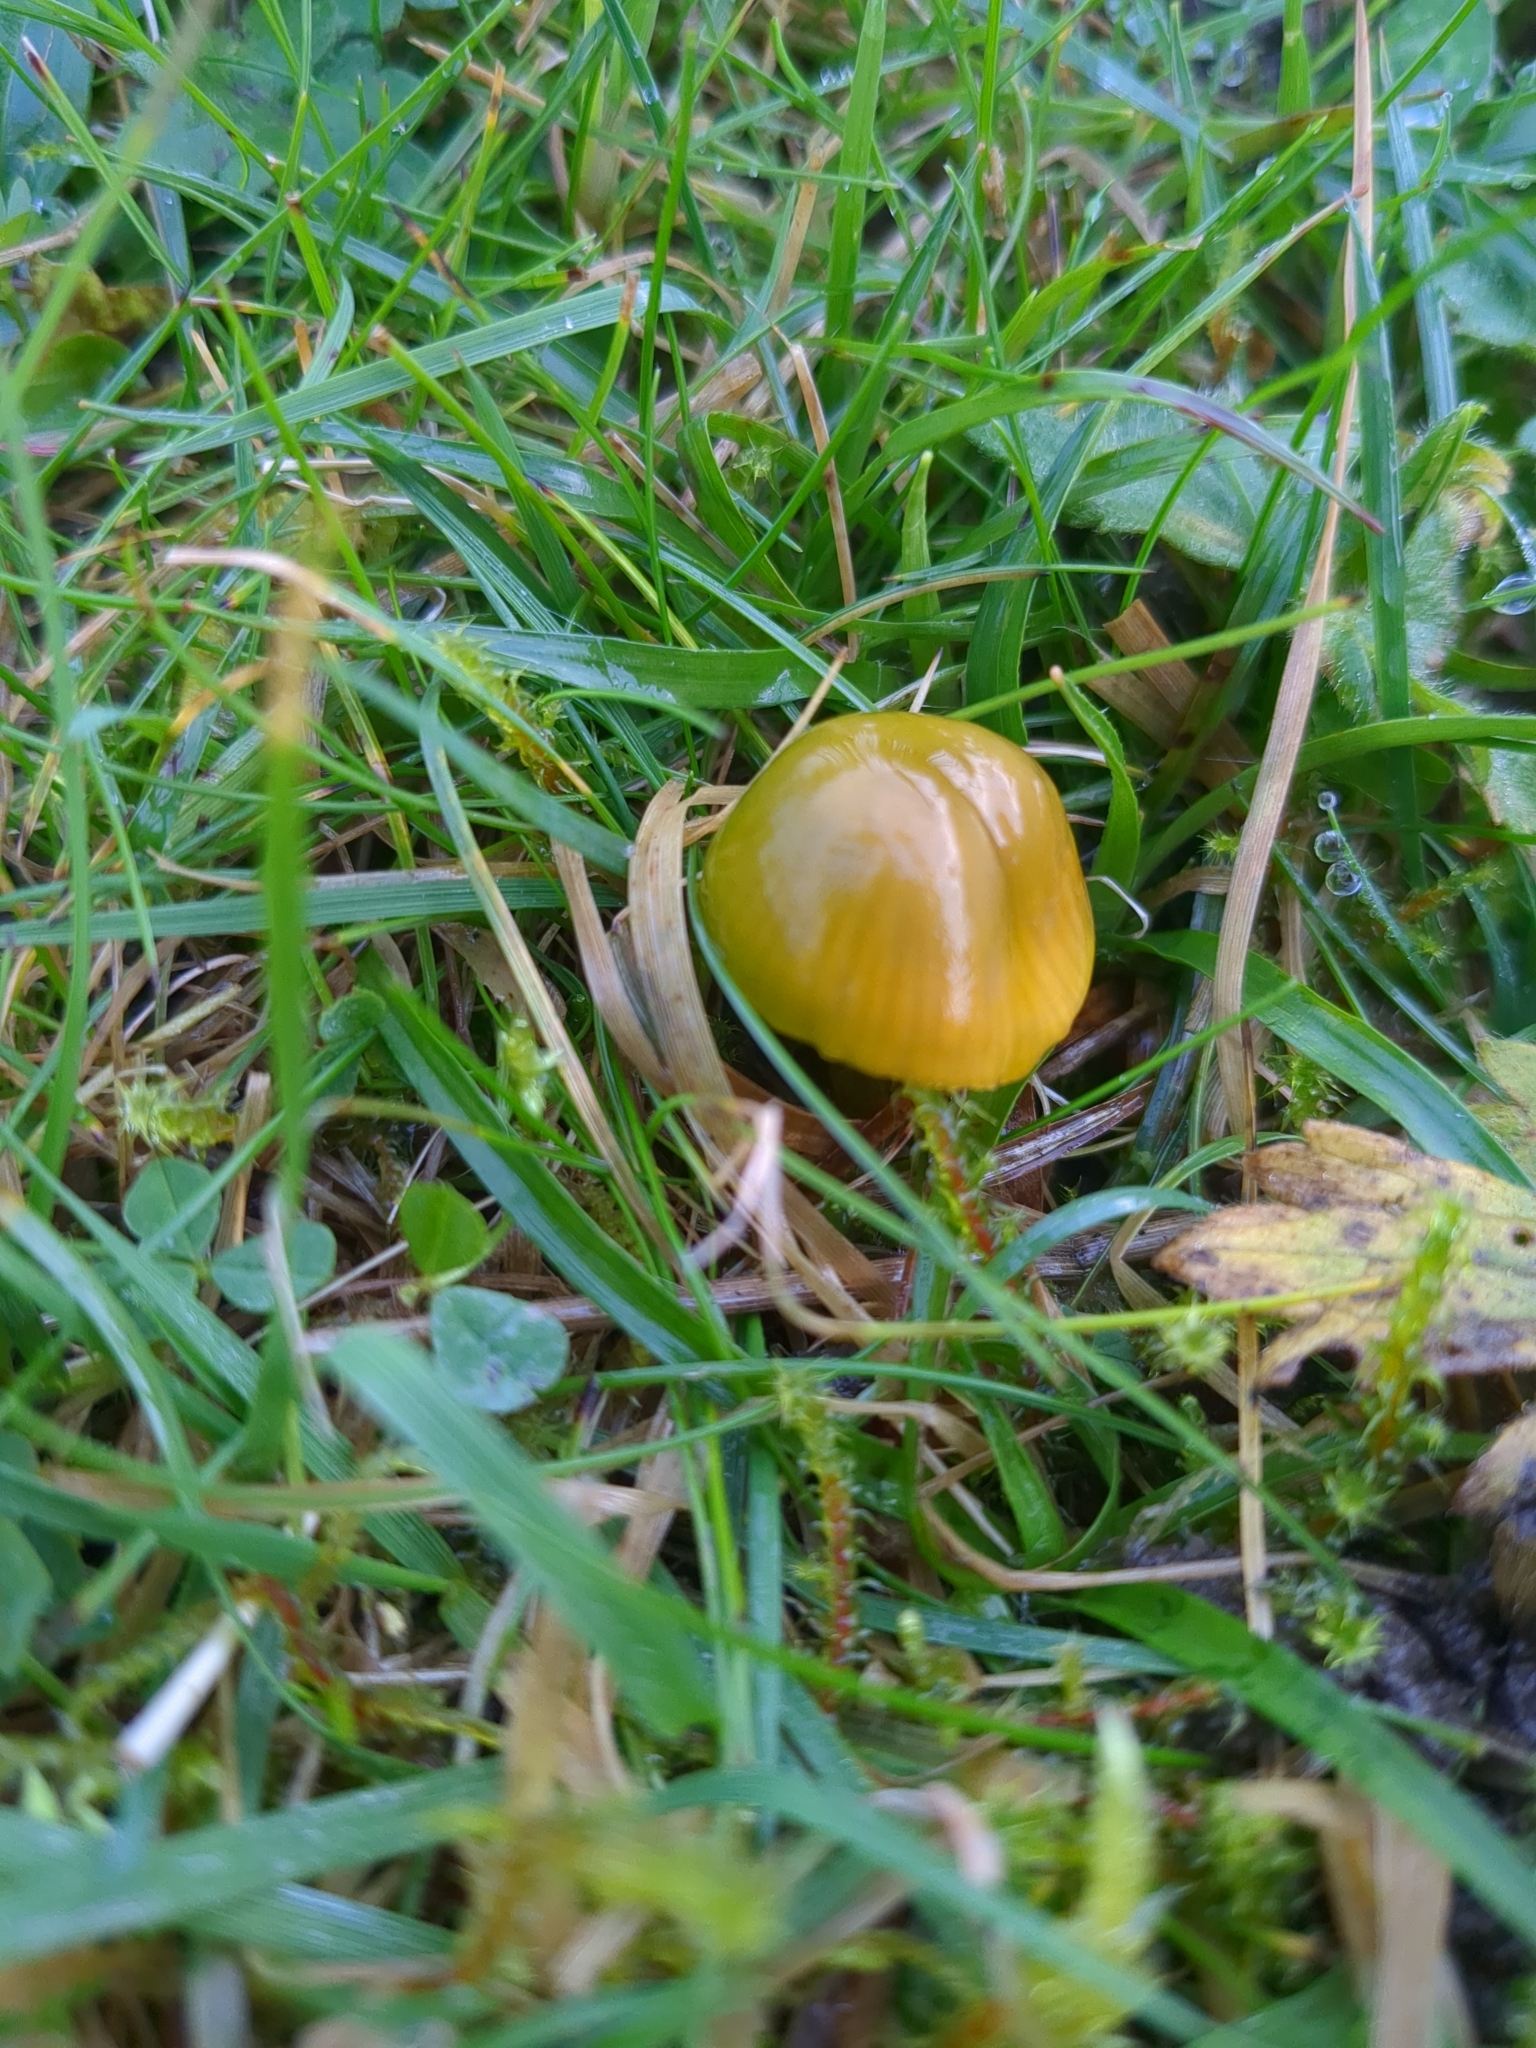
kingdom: Fungi
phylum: Basidiomycota
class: Agaricomycetes
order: Agaricales
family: Hygrophoraceae
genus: Gliophorus
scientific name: Gliophorus psittacinus
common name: Parrot wax-cap
